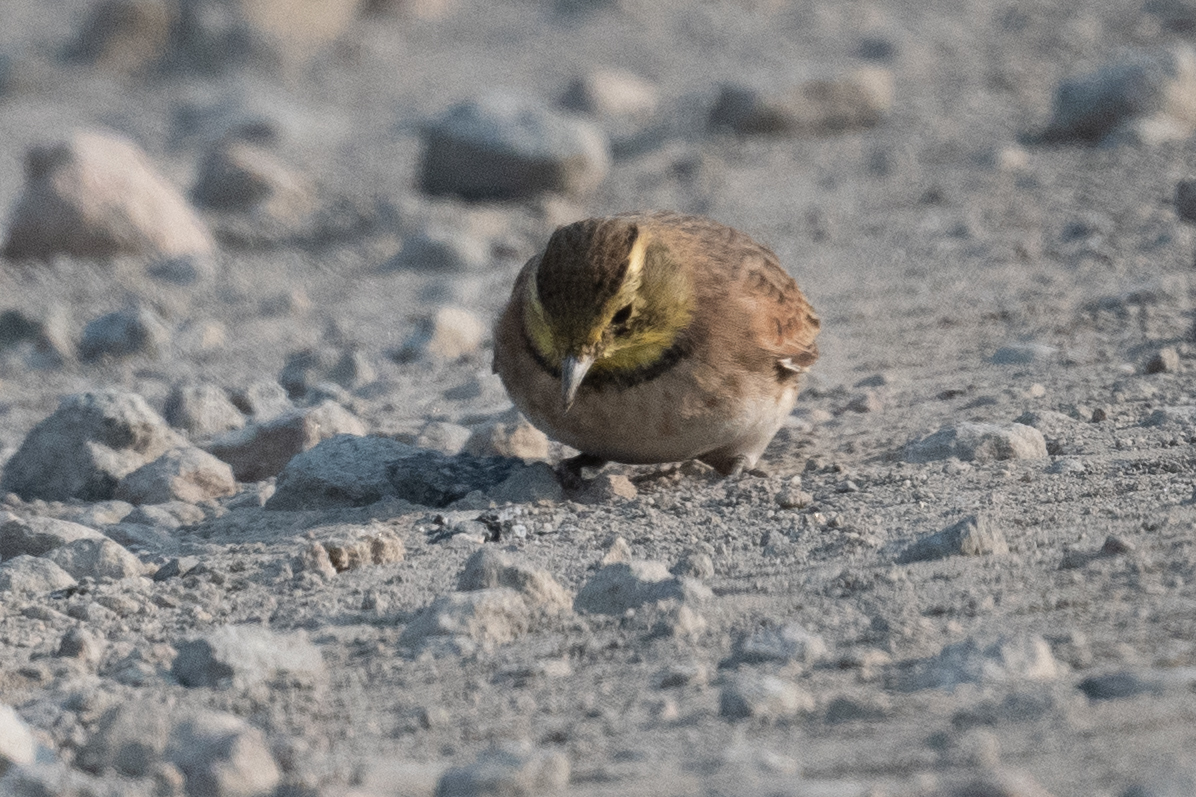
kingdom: Animalia
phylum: Chordata
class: Aves
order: Passeriformes
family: Alaudidae
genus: Eremophila
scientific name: Eremophila alpestris
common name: Horned lark
